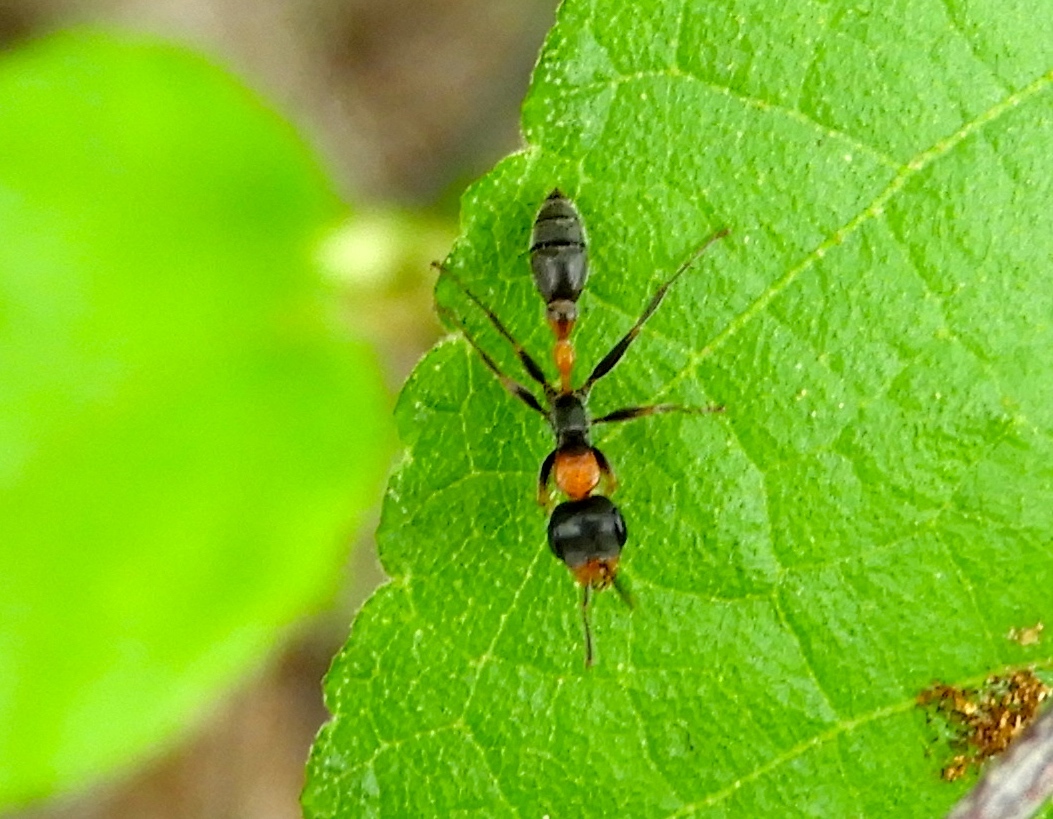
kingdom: Animalia
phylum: Arthropoda
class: Insecta
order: Hymenoptera
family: Formicidae
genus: Pseudomyrmex
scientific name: Pseudomyrmex gracilis
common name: Graceful twig ant
